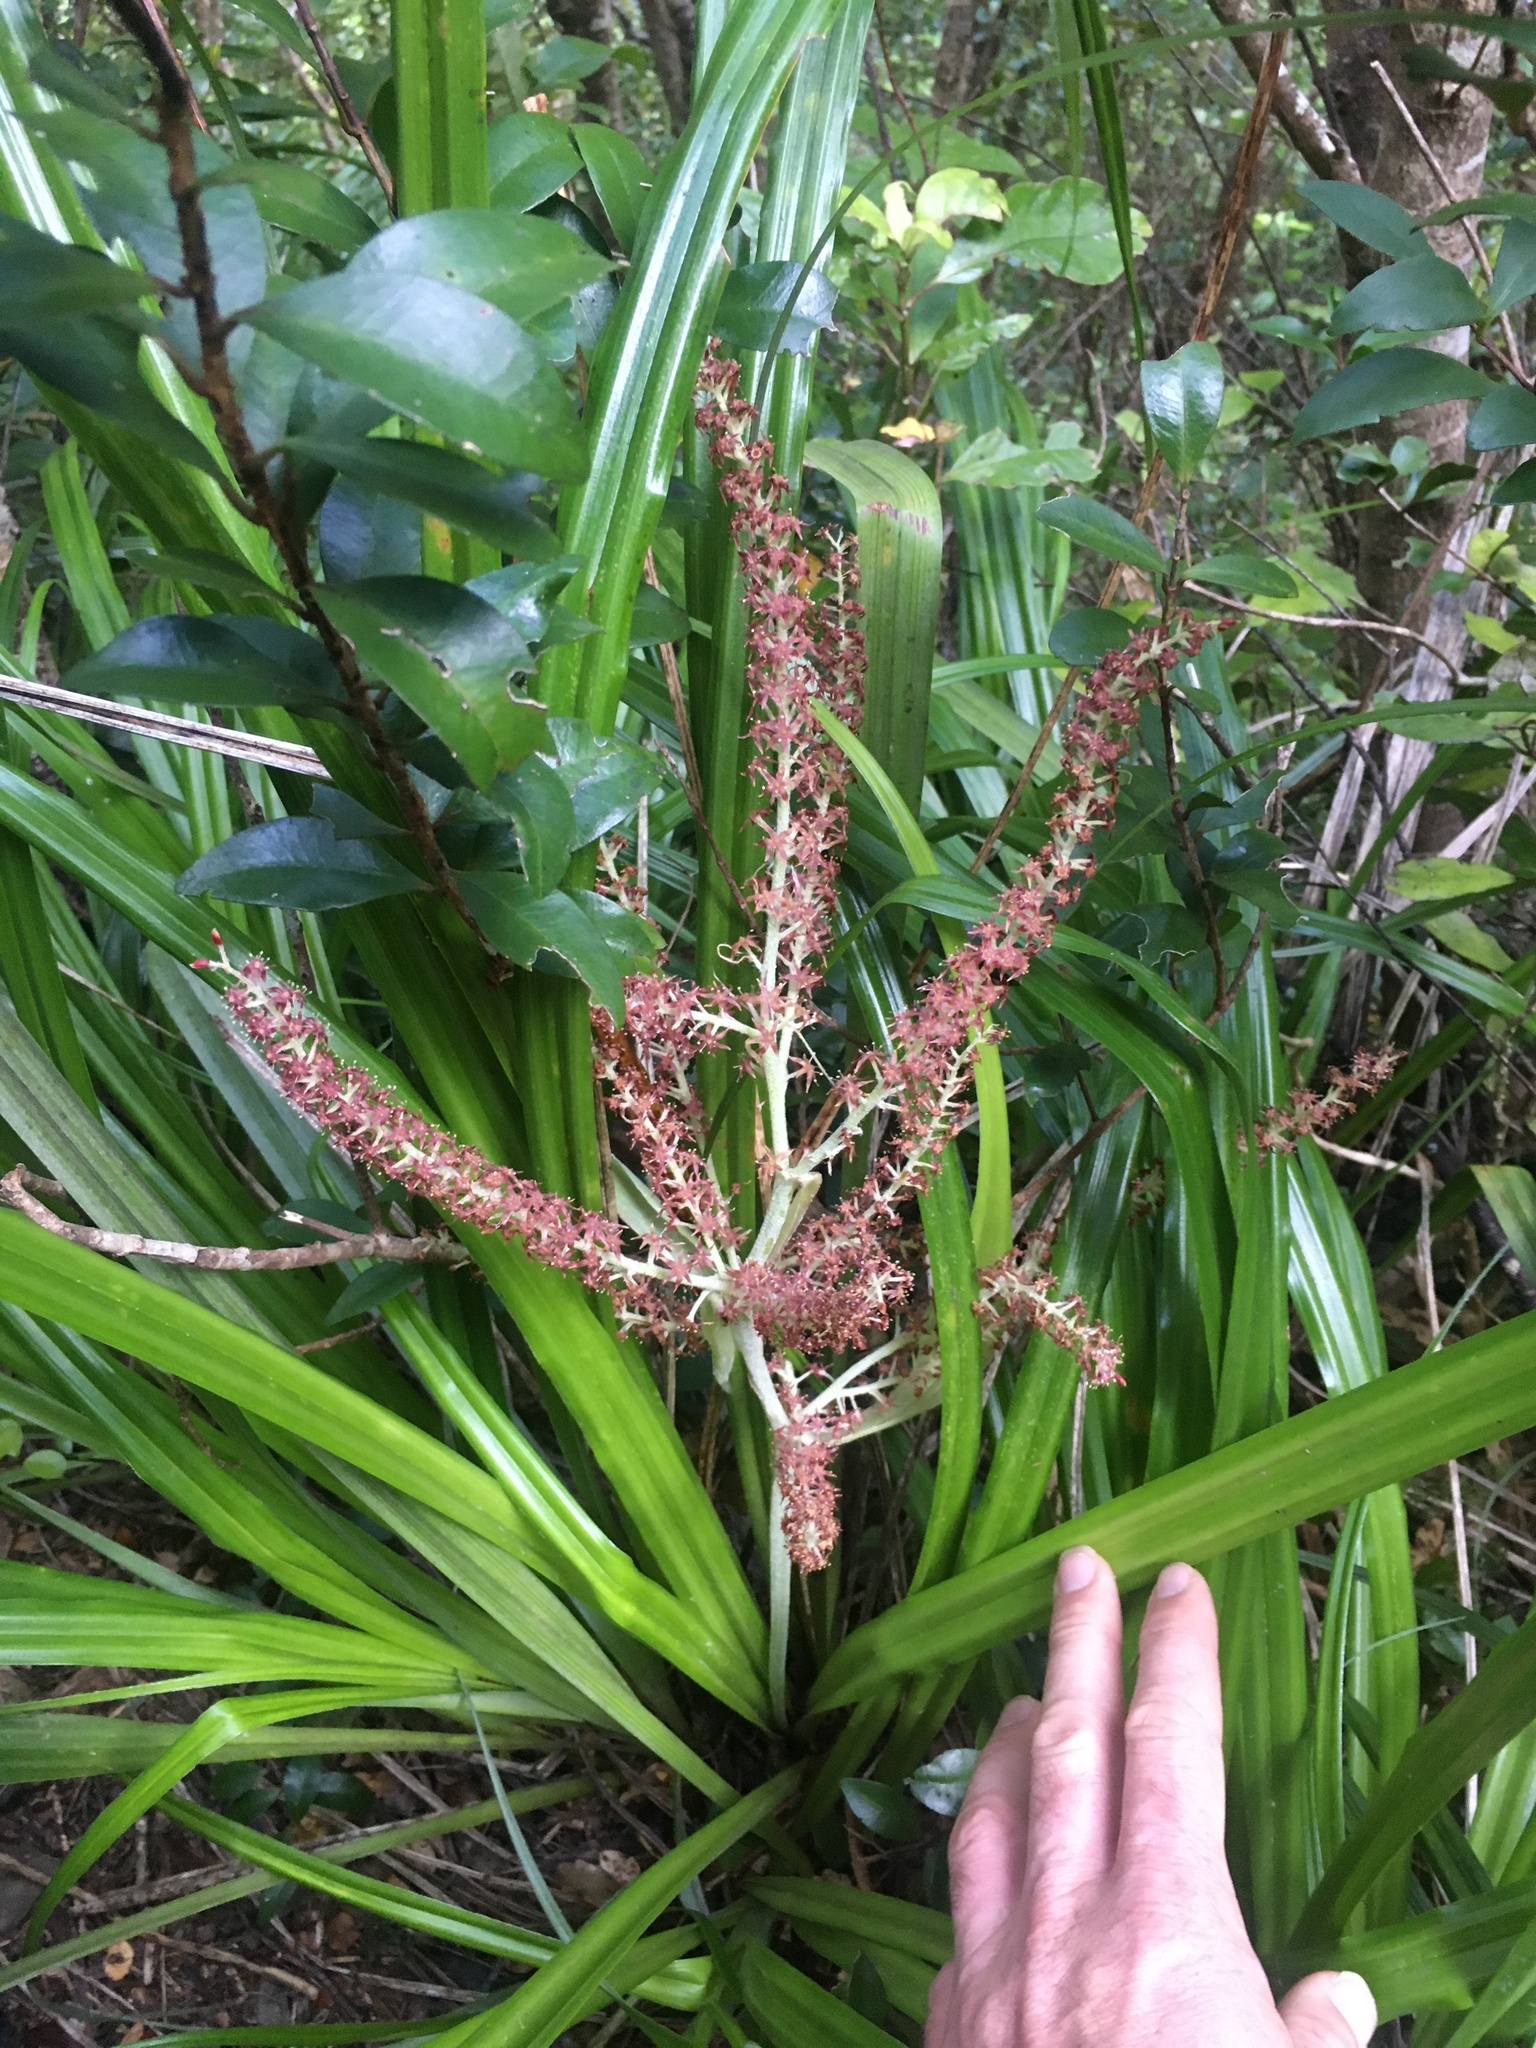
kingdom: Plantae
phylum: Tracheophyta
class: Liliopsida
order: Asparagales
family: Asteliaceae
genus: Astelia
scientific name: Astelia solandri
